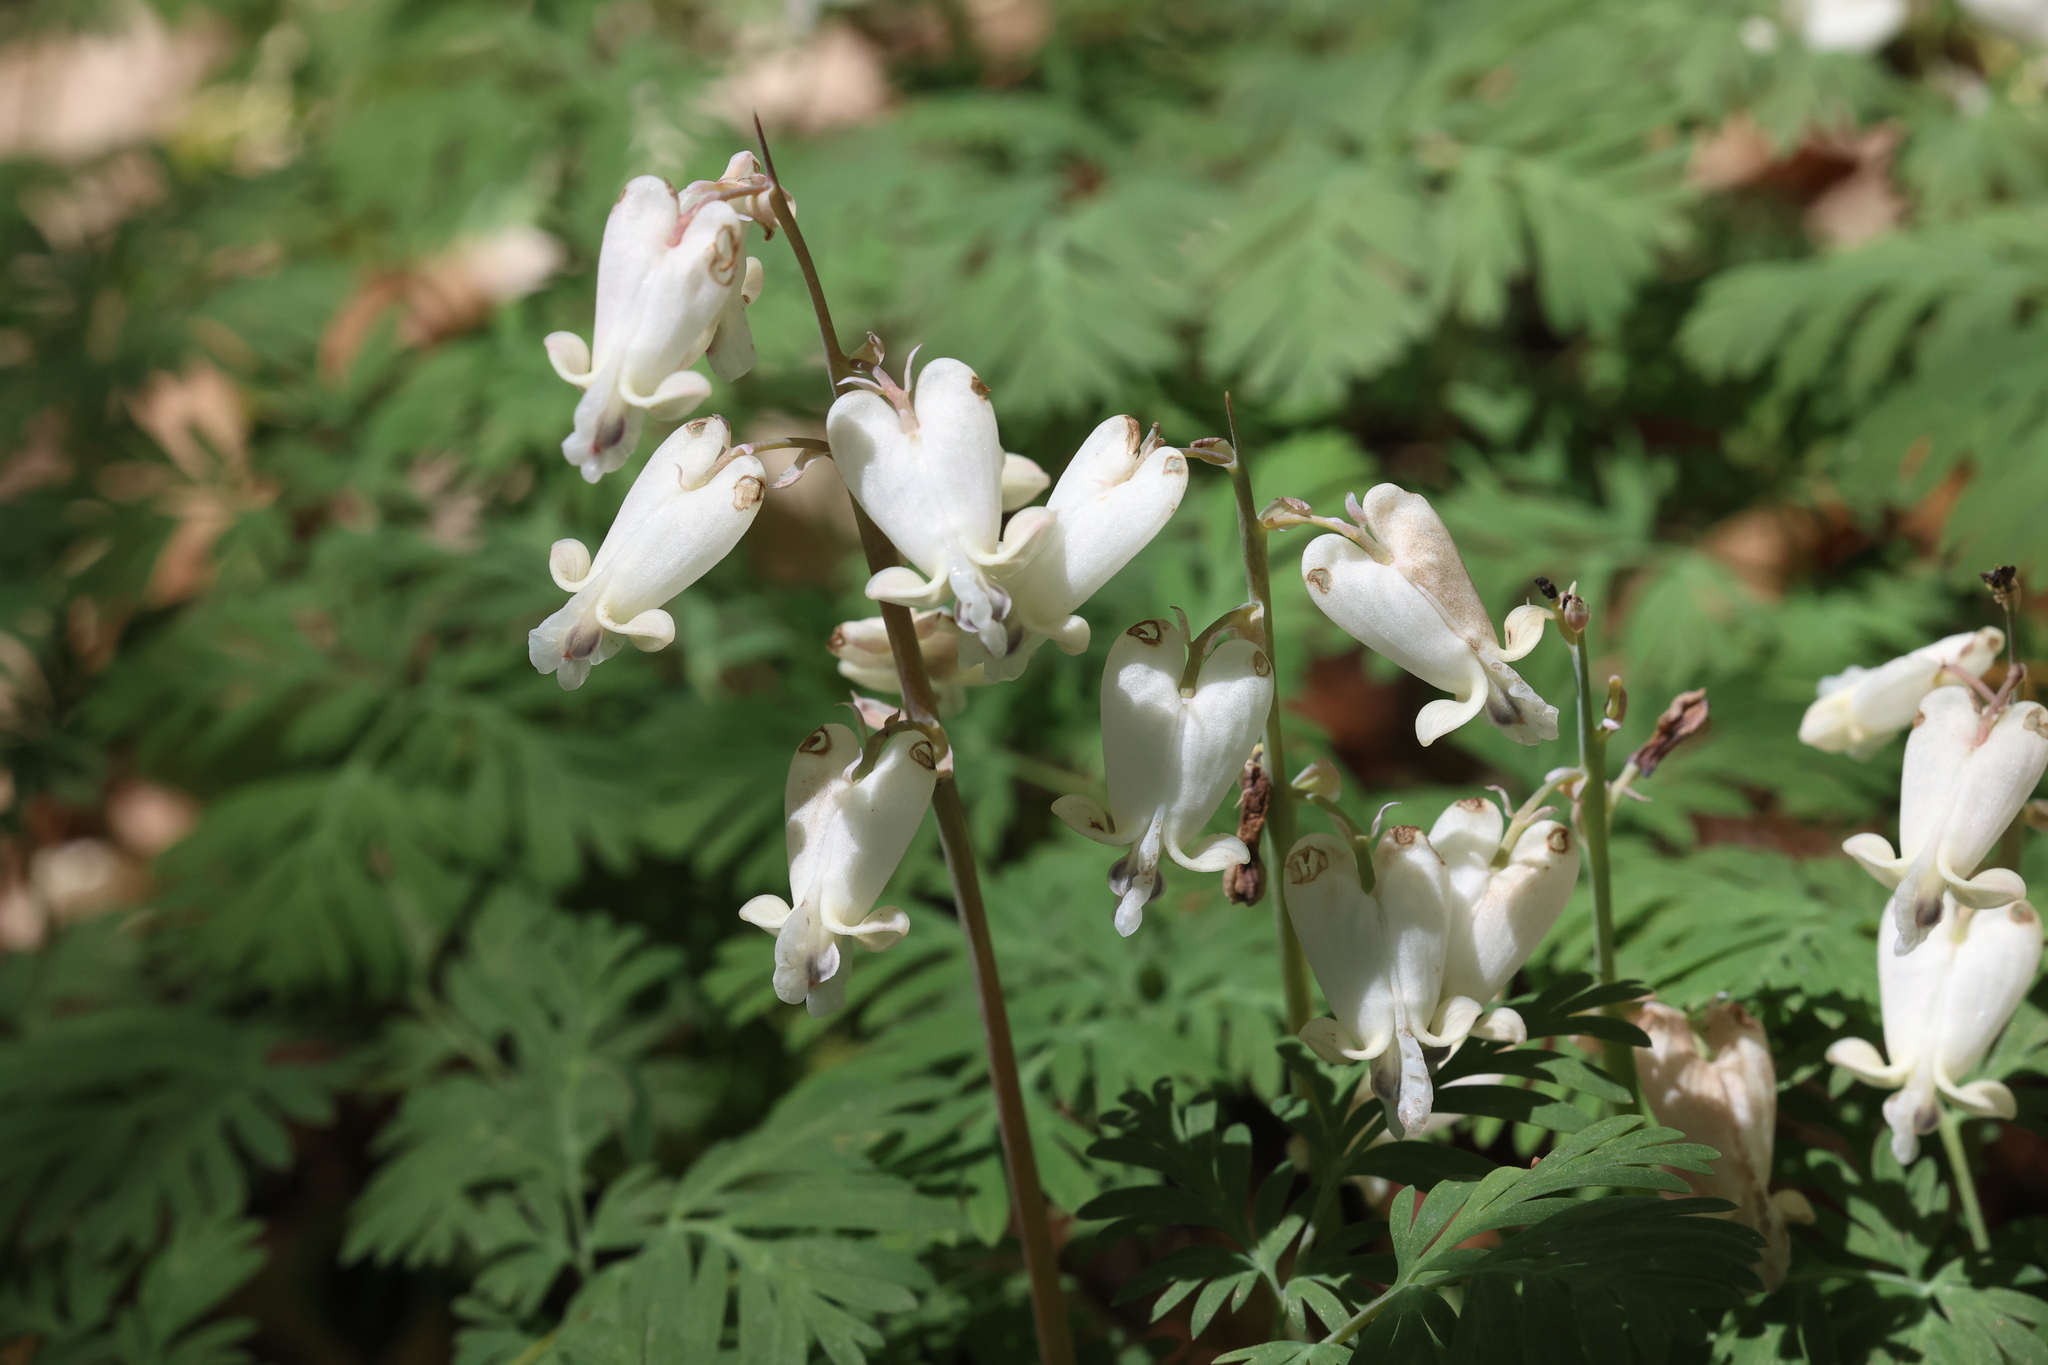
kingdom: Plantae
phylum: Tracheophyta
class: Magnoliopsida
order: Ranunculales
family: Papaveraceae
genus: Dicentra
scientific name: Dicentra canadensis
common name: Squirrel-corn
